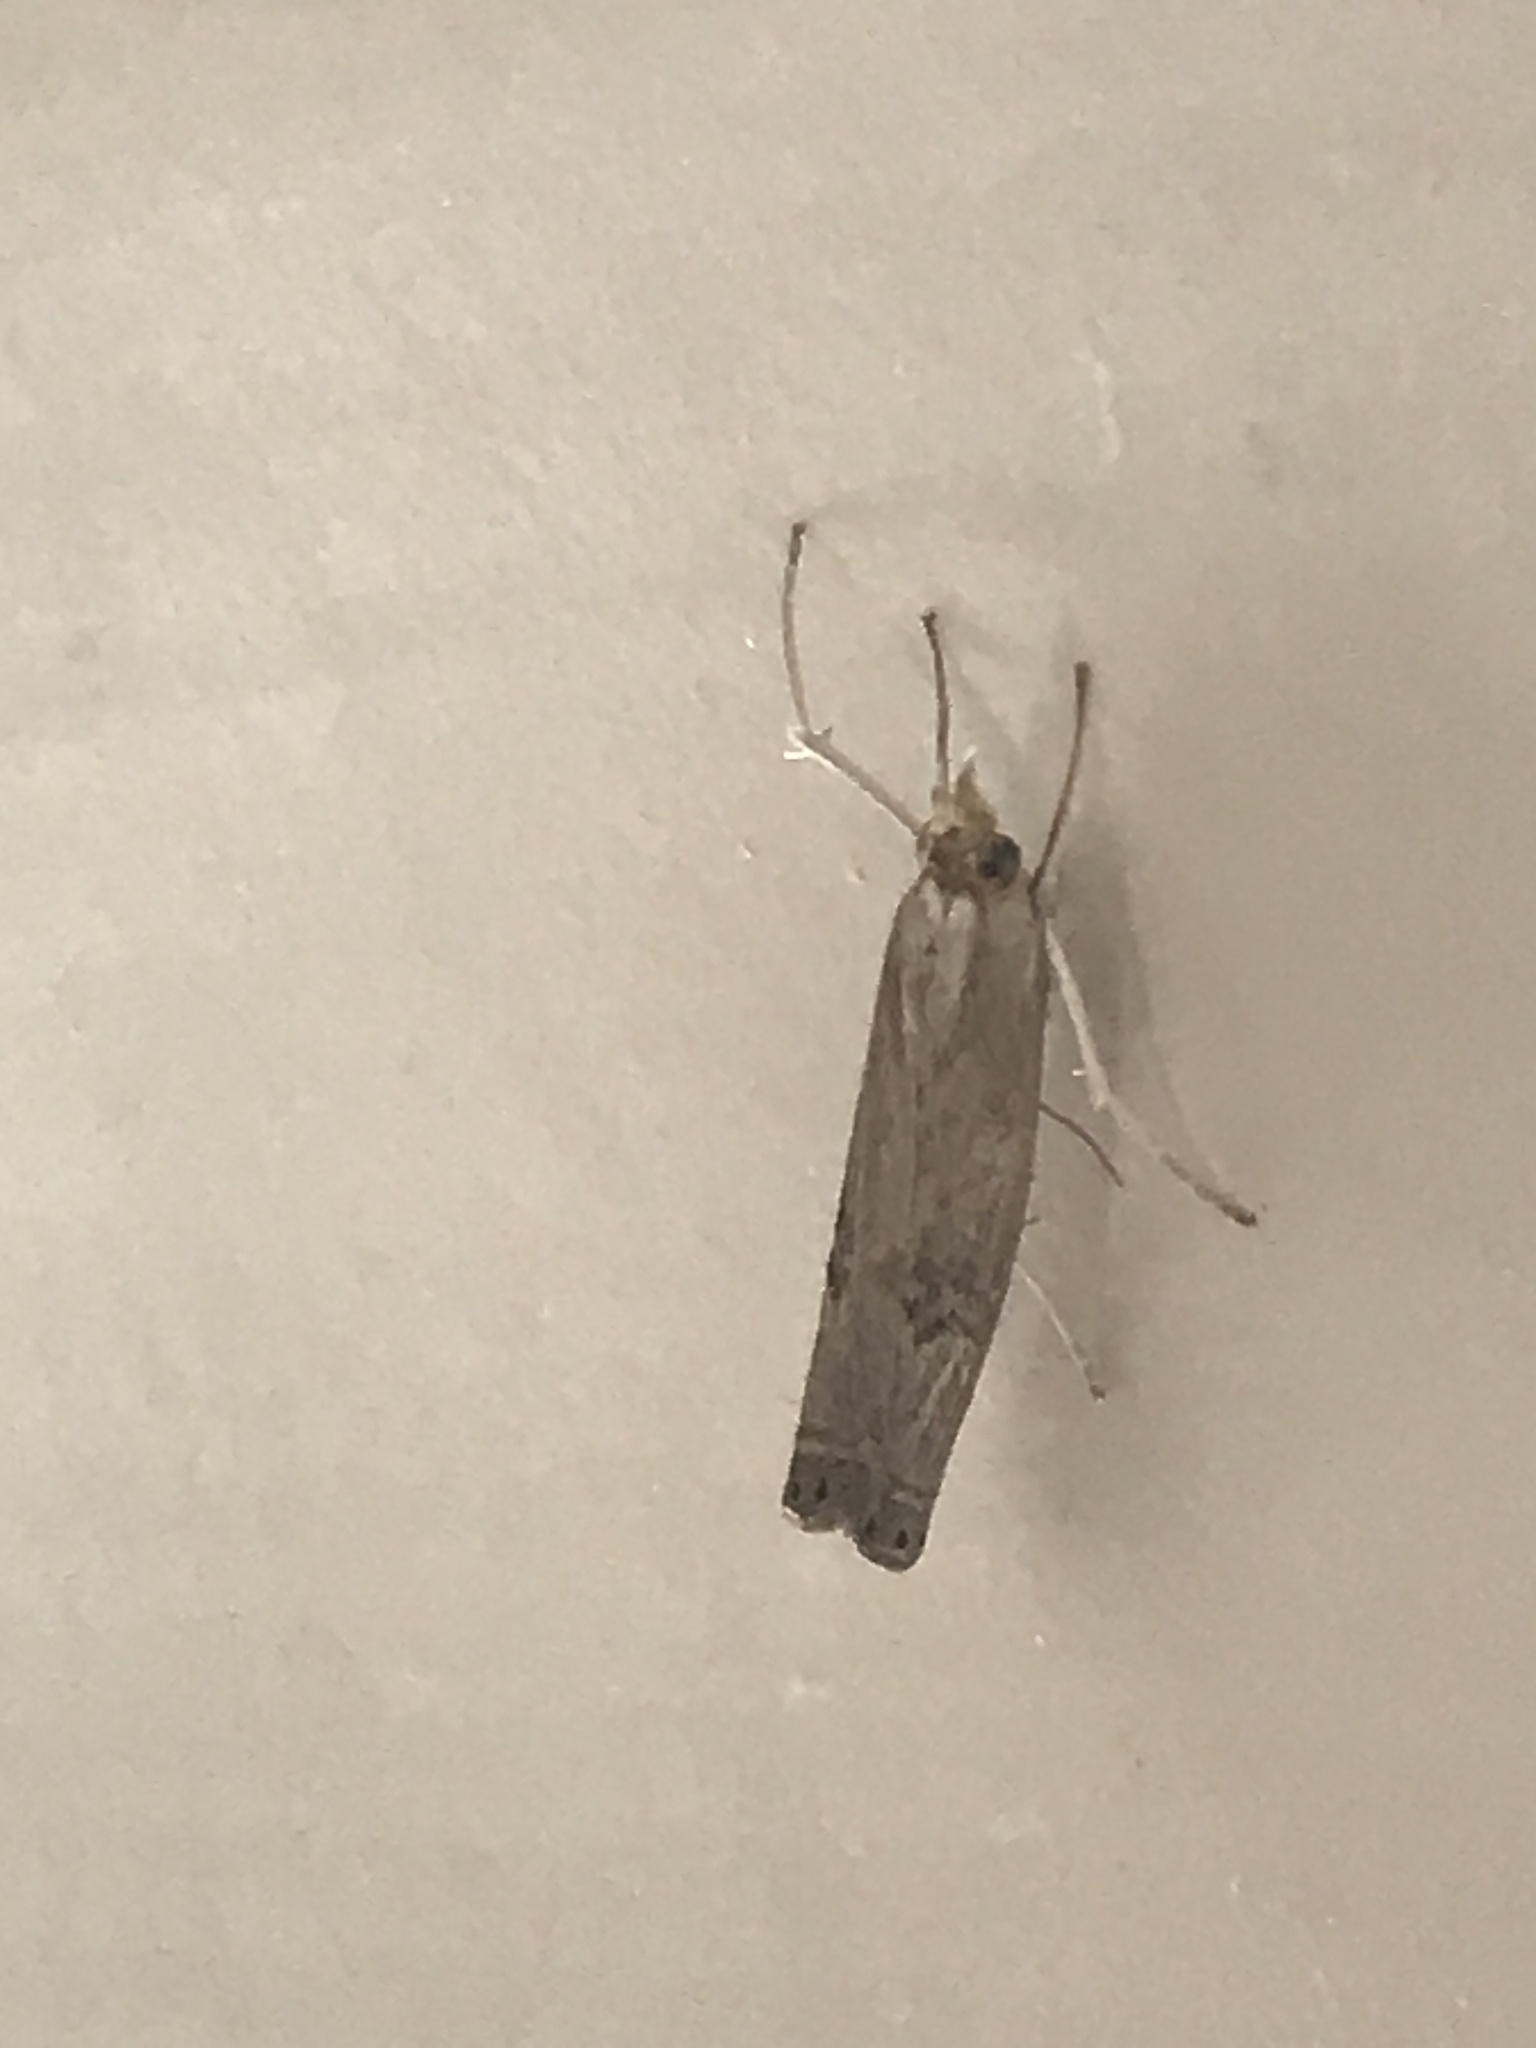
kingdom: Animalia
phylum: Arthropoda
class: Insecta
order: Lepidoptera
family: Crambidae
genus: Parapediasia
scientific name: Parapediasia teterellus
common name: Bluegrass webworm moth
